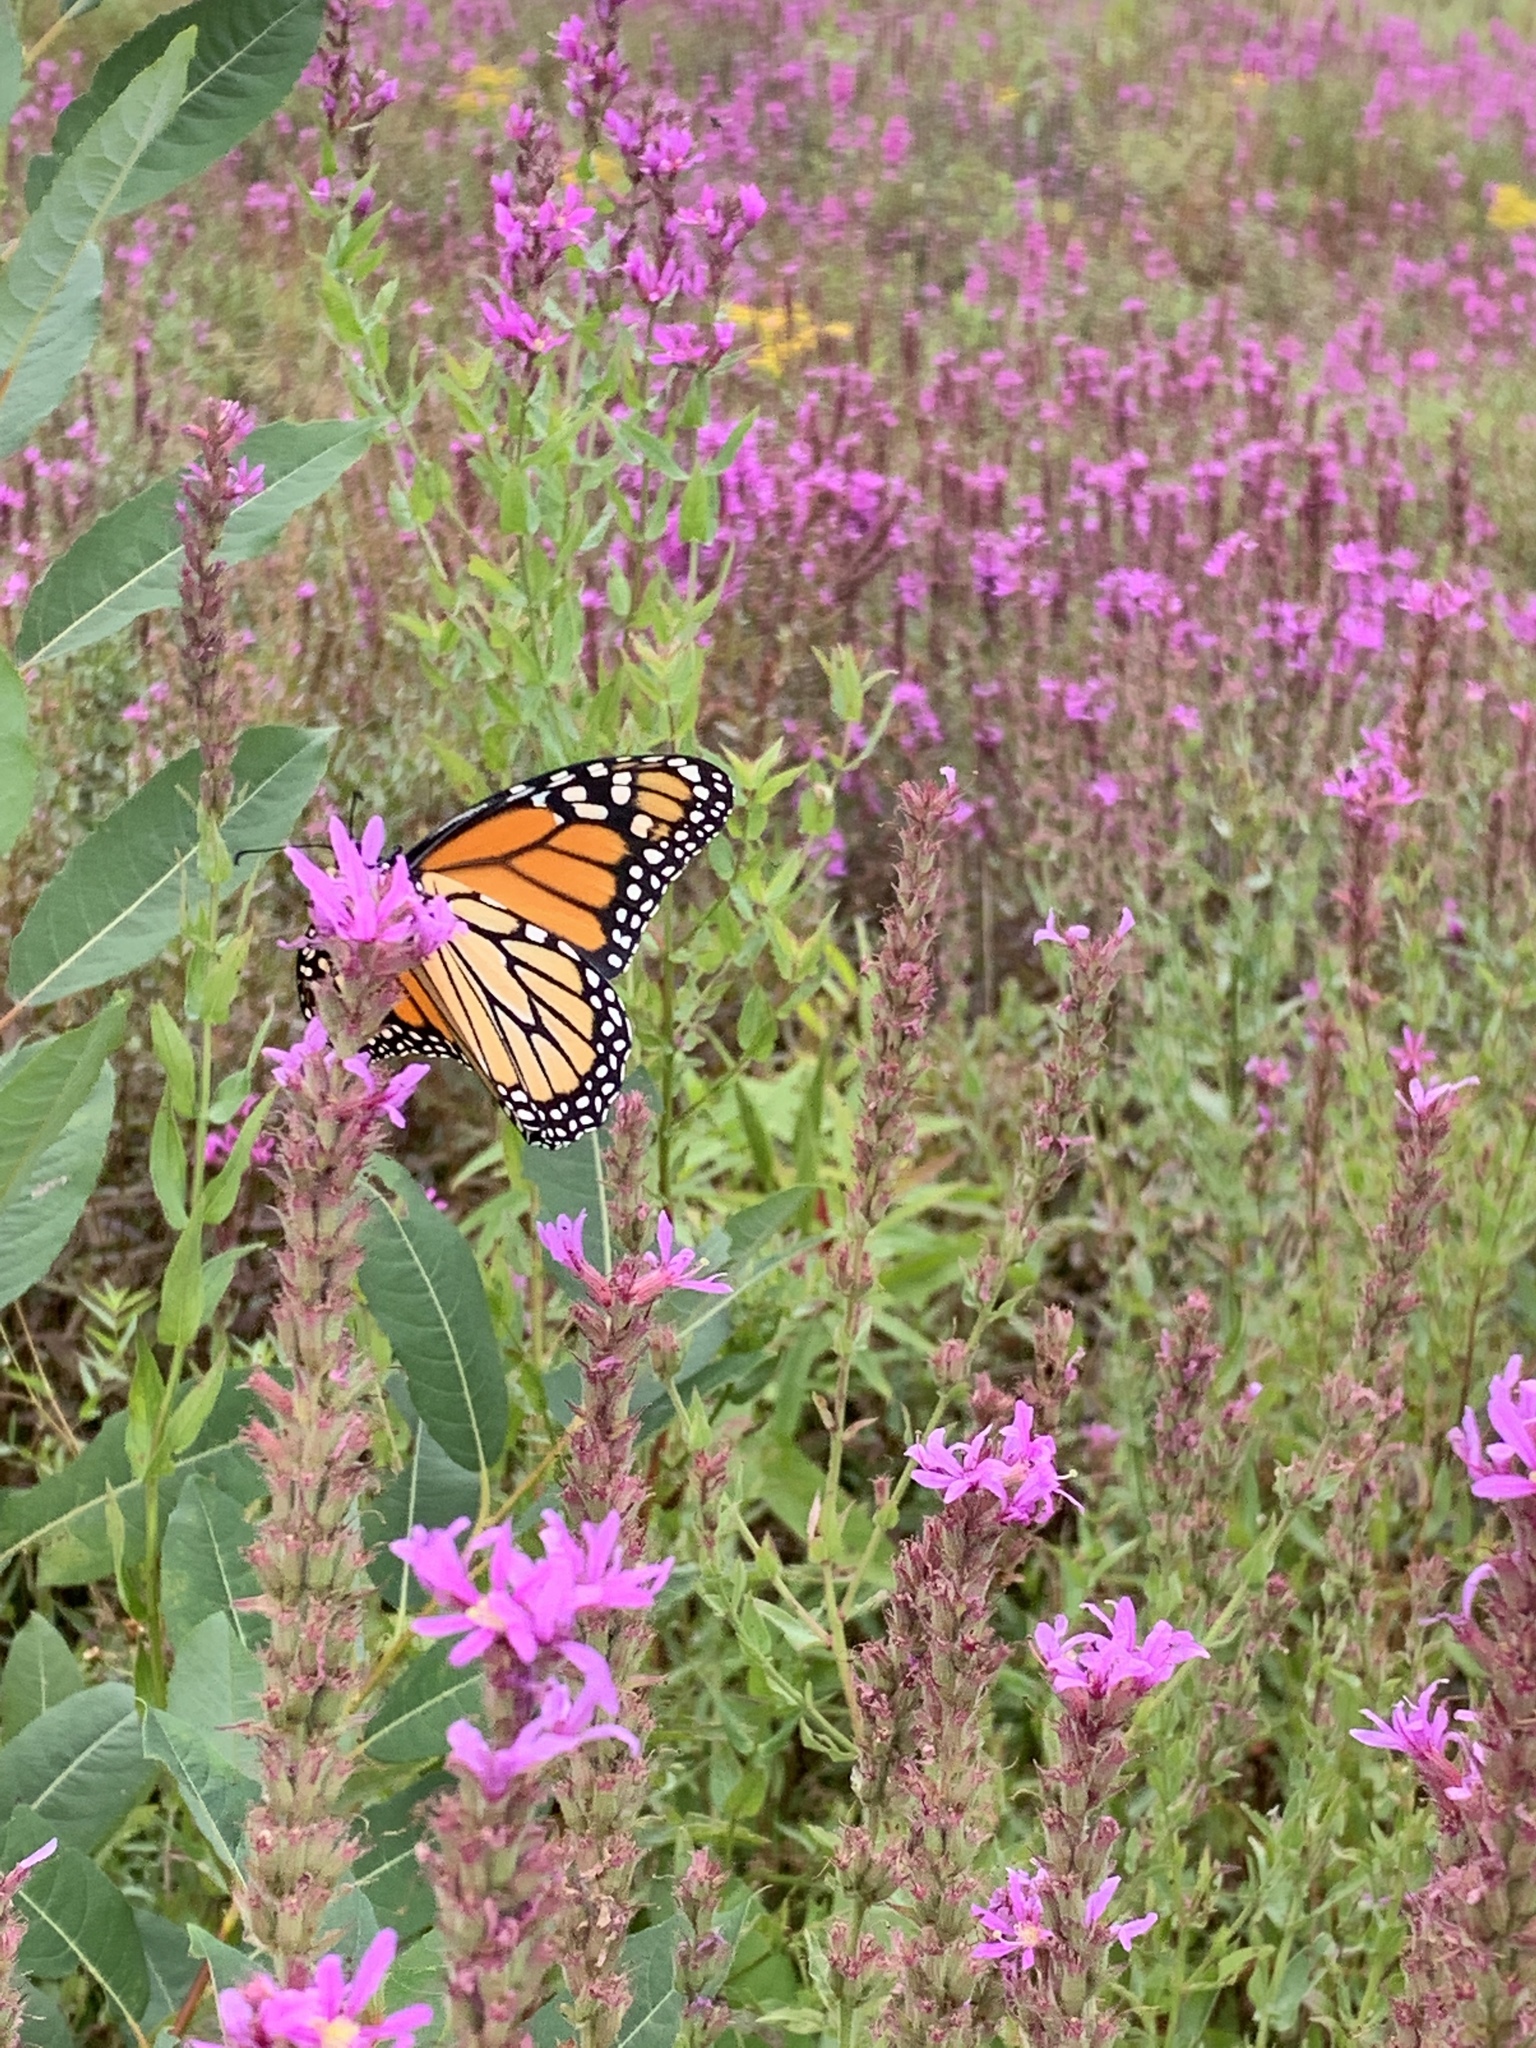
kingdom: Animalia
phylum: Arthropoda
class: Insecta
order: Lepidoptera
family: Nymphalidae
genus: Danaus
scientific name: Danaus plexippus
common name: Monarch
